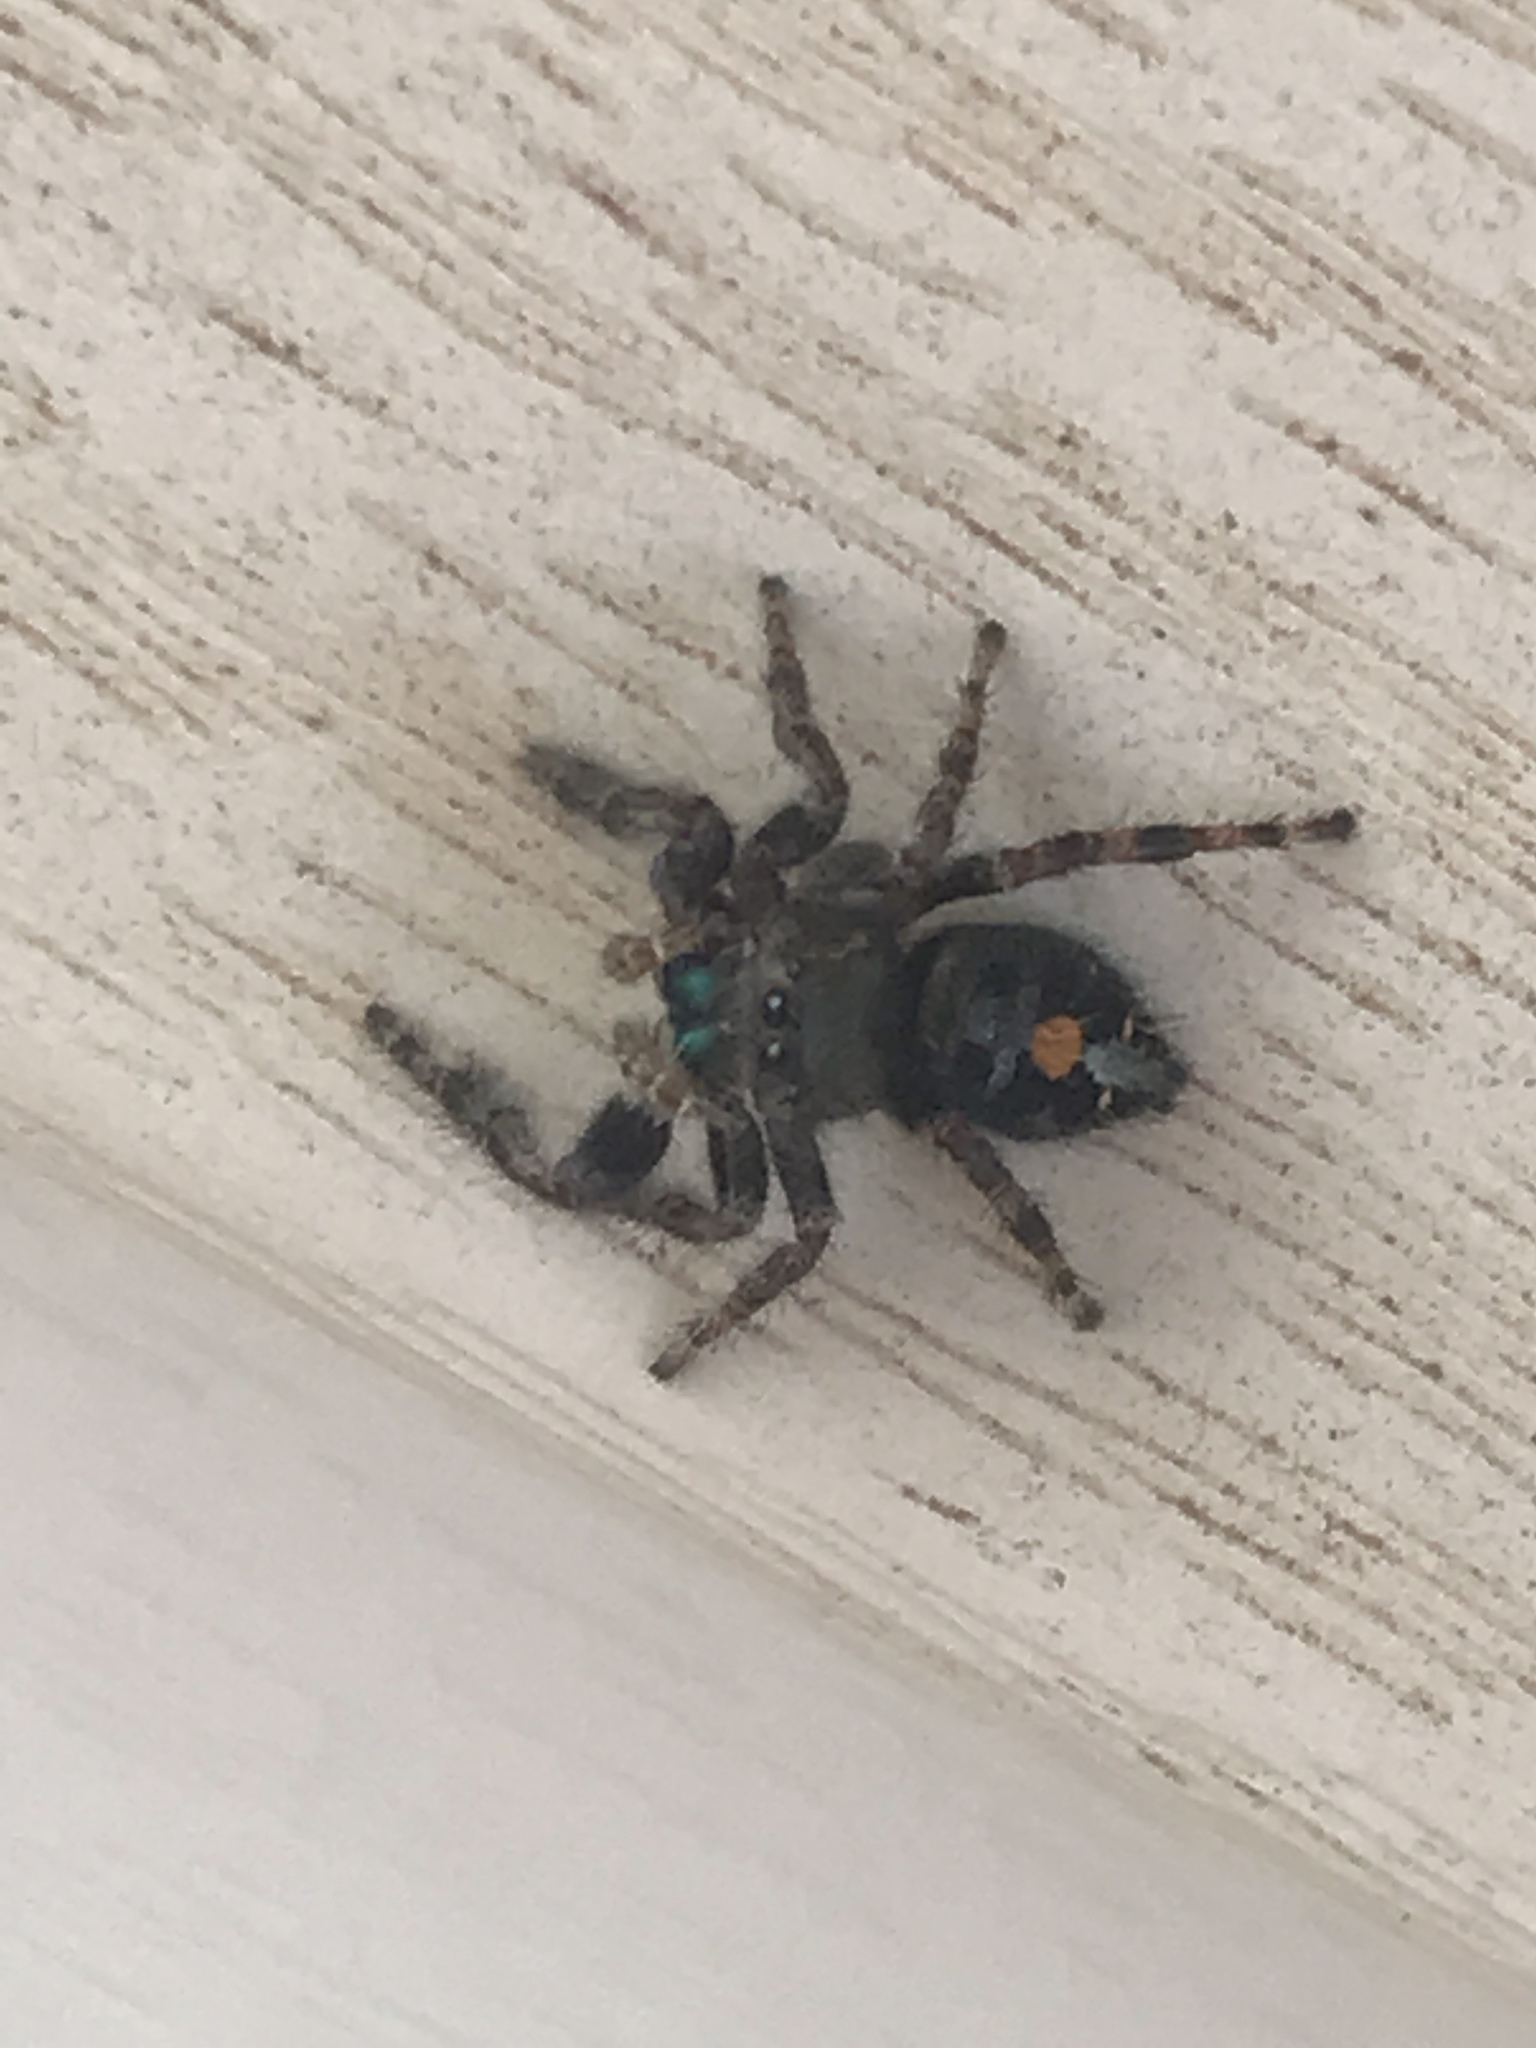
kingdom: Animalia
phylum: Arthropoda
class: Arachnida
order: Araneae
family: Salticidae
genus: Phidippus
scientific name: Phidippus audax
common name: Bold jumper
